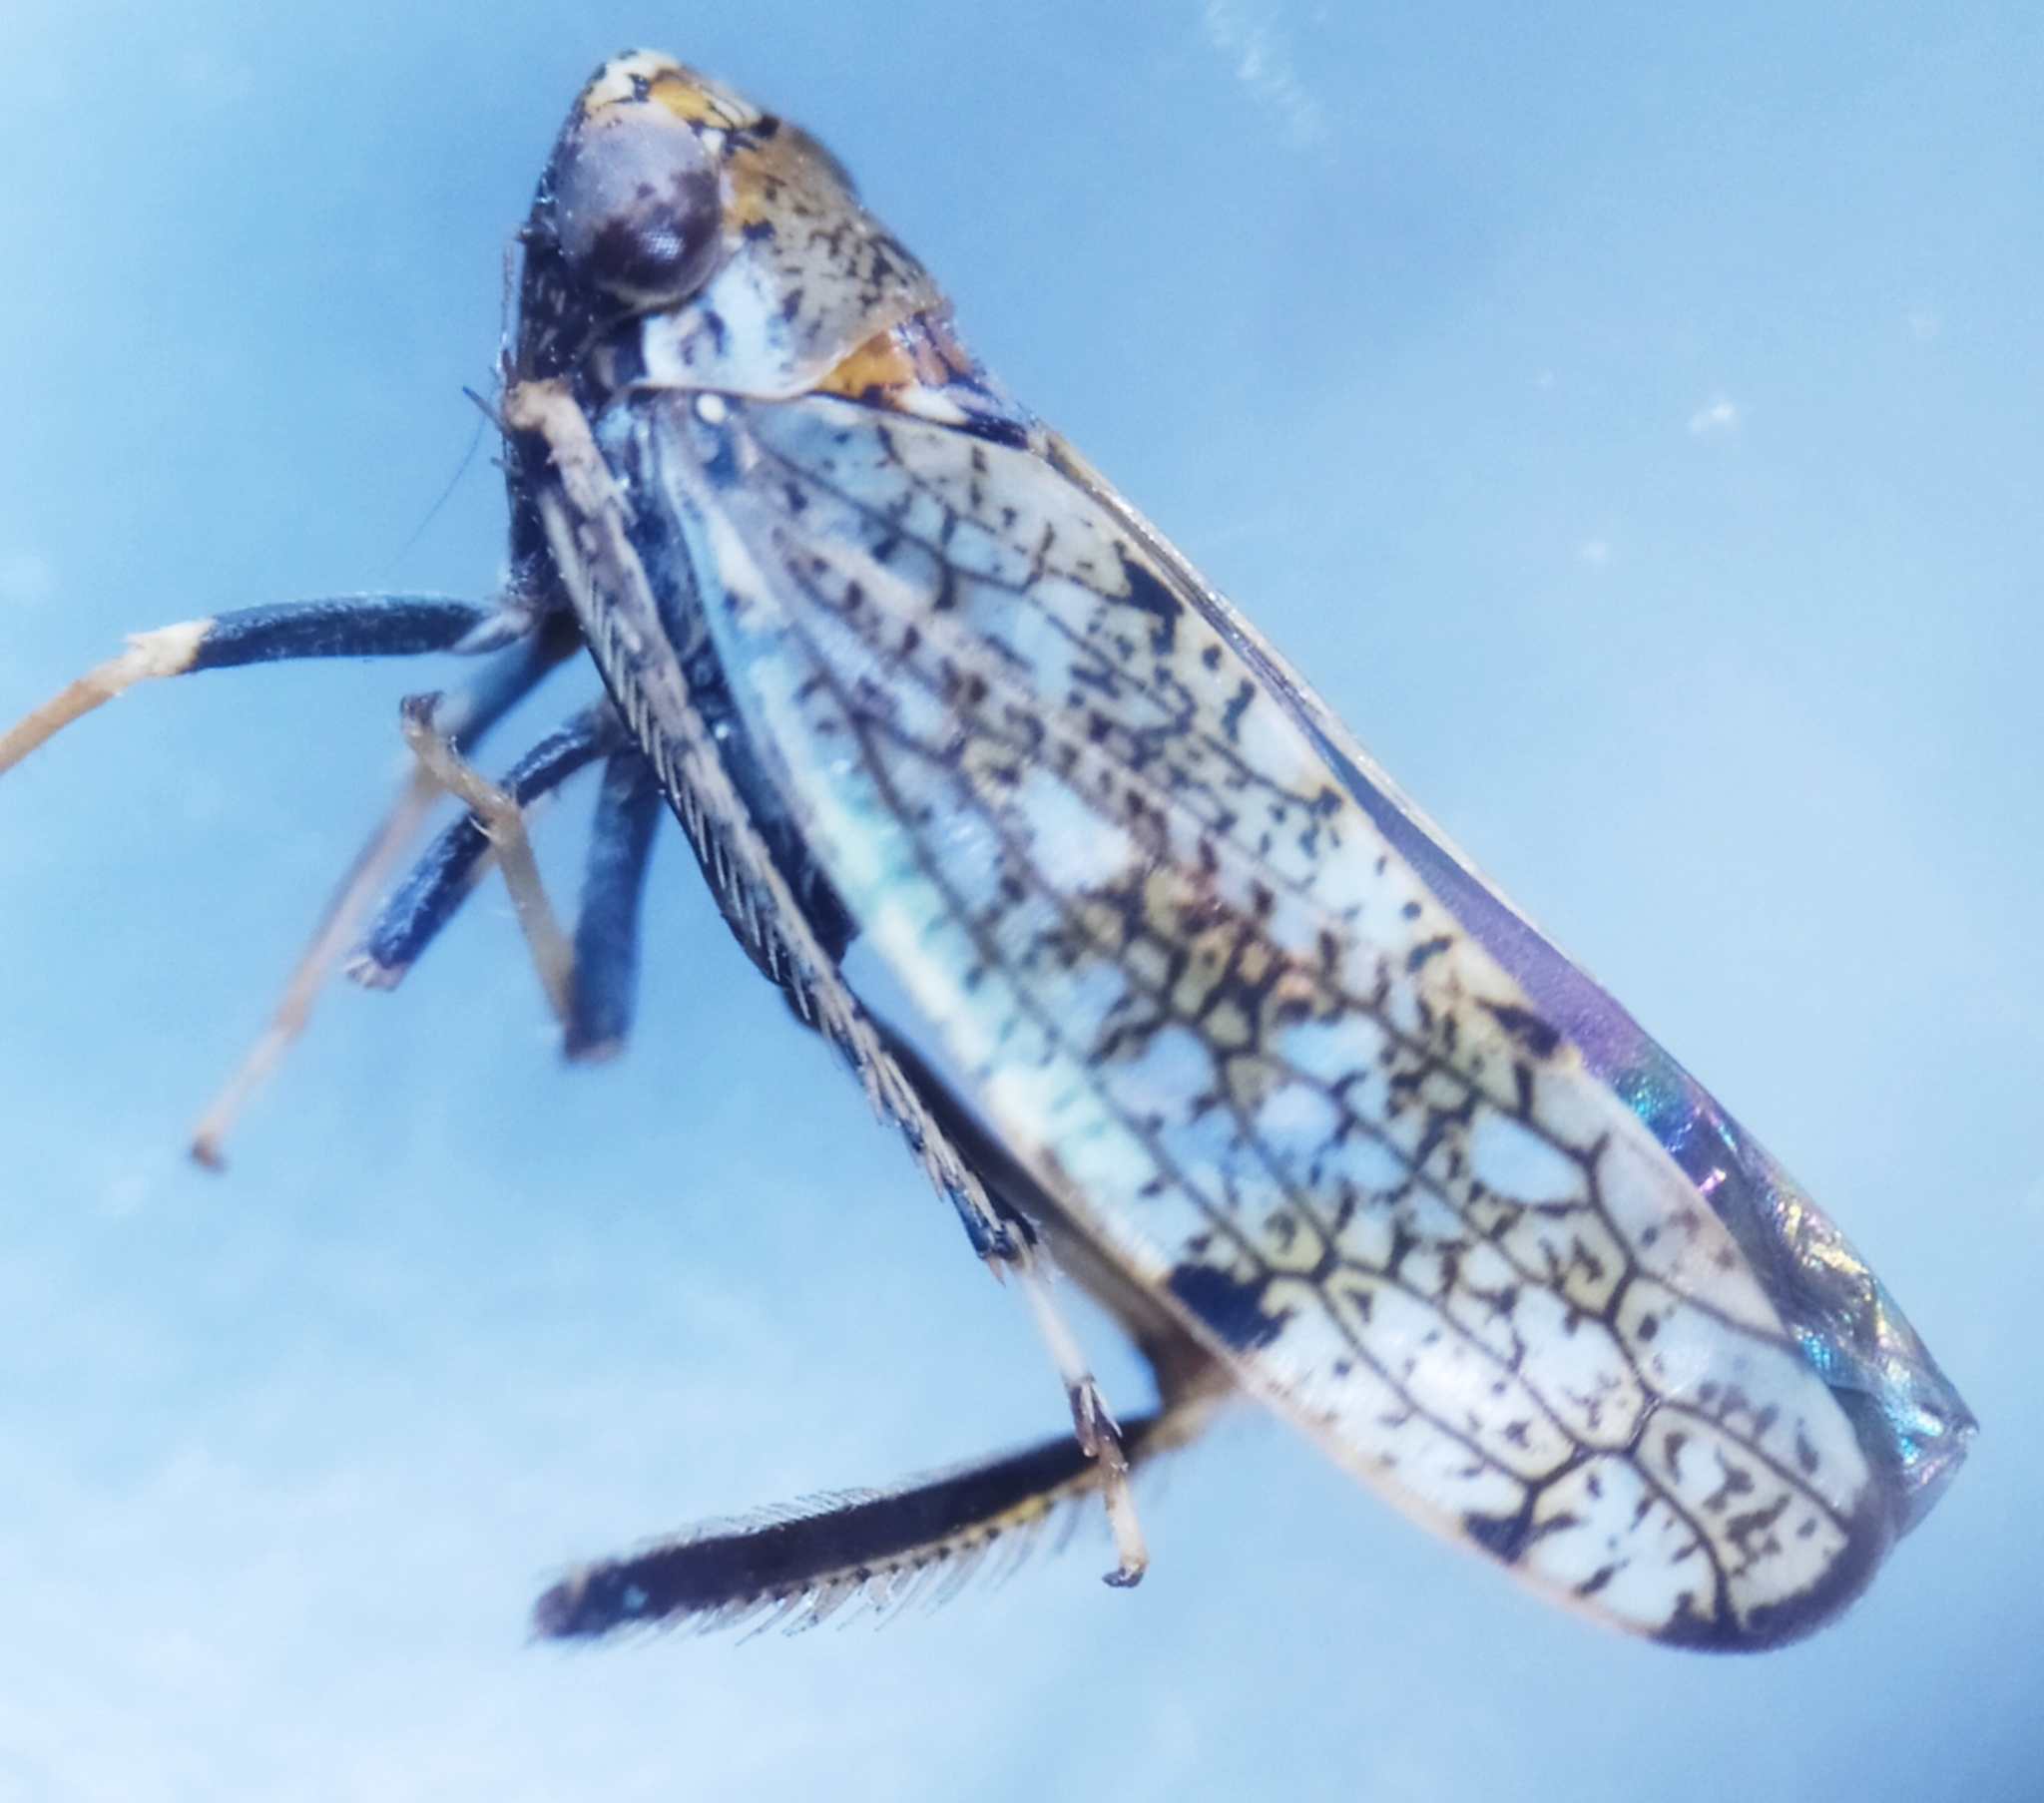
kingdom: Animalia
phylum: Arthropoda
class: Insecta
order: Hemiptera
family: Cicadellidae
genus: Orientus
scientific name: Orientus ishidae
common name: Japanese leafhopper
